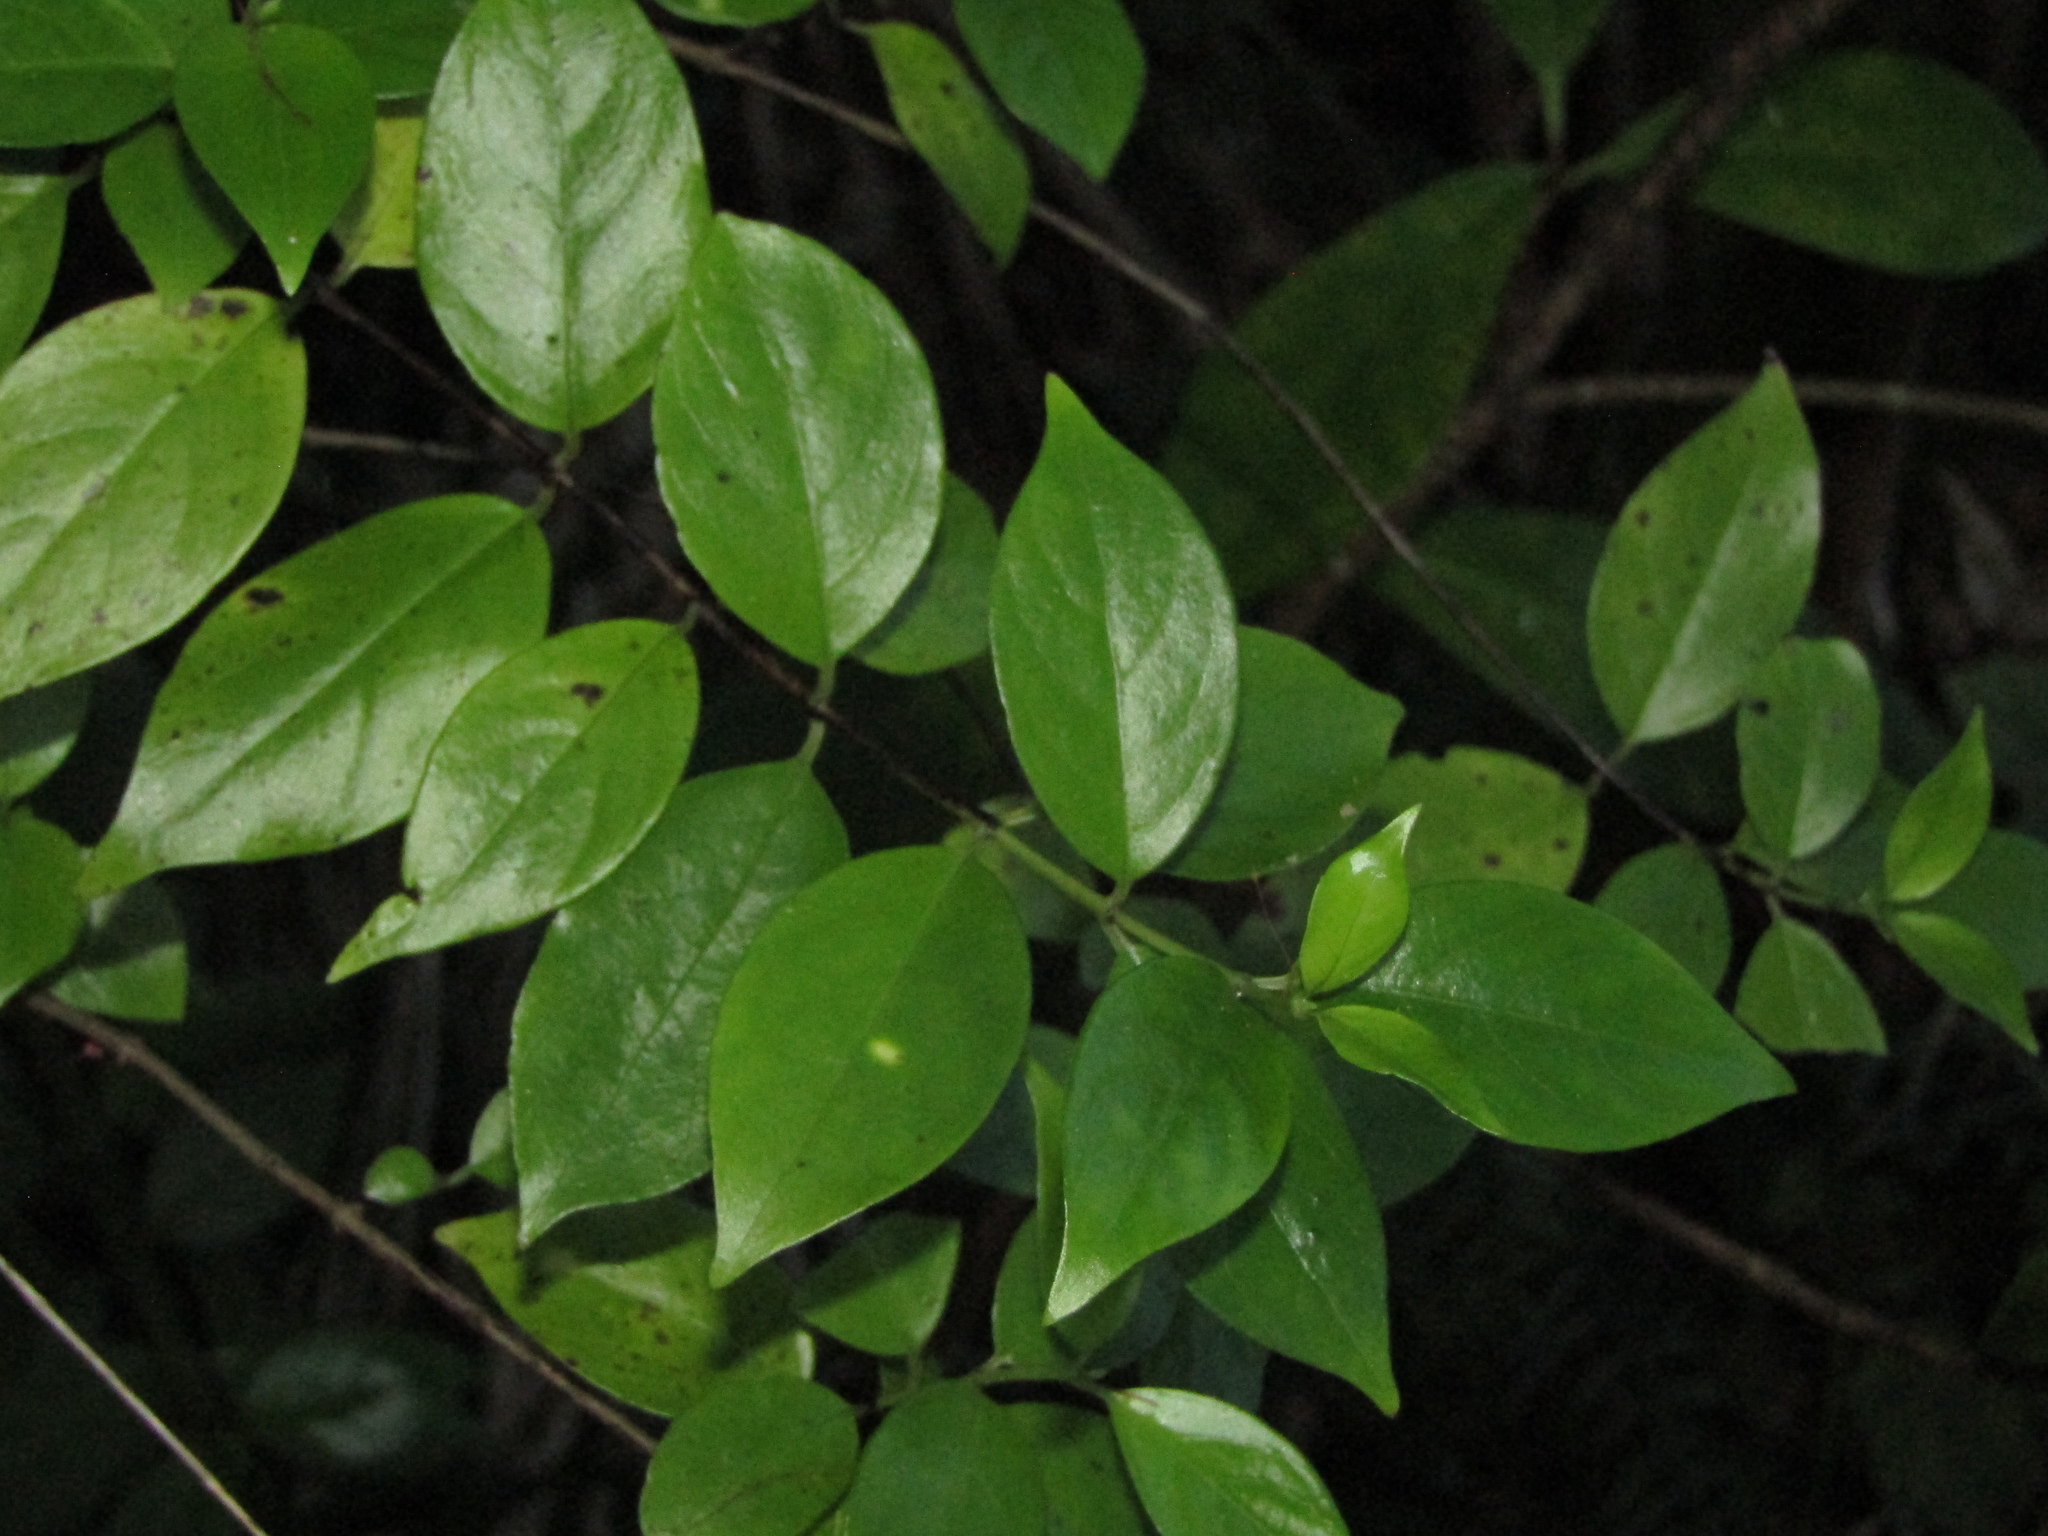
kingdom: Plantae
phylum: Tracheophyta
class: Magnoliopsida
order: Gentianales
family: Loganiaceae
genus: Geniostoma
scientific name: Geniostoma ligustrifolium
